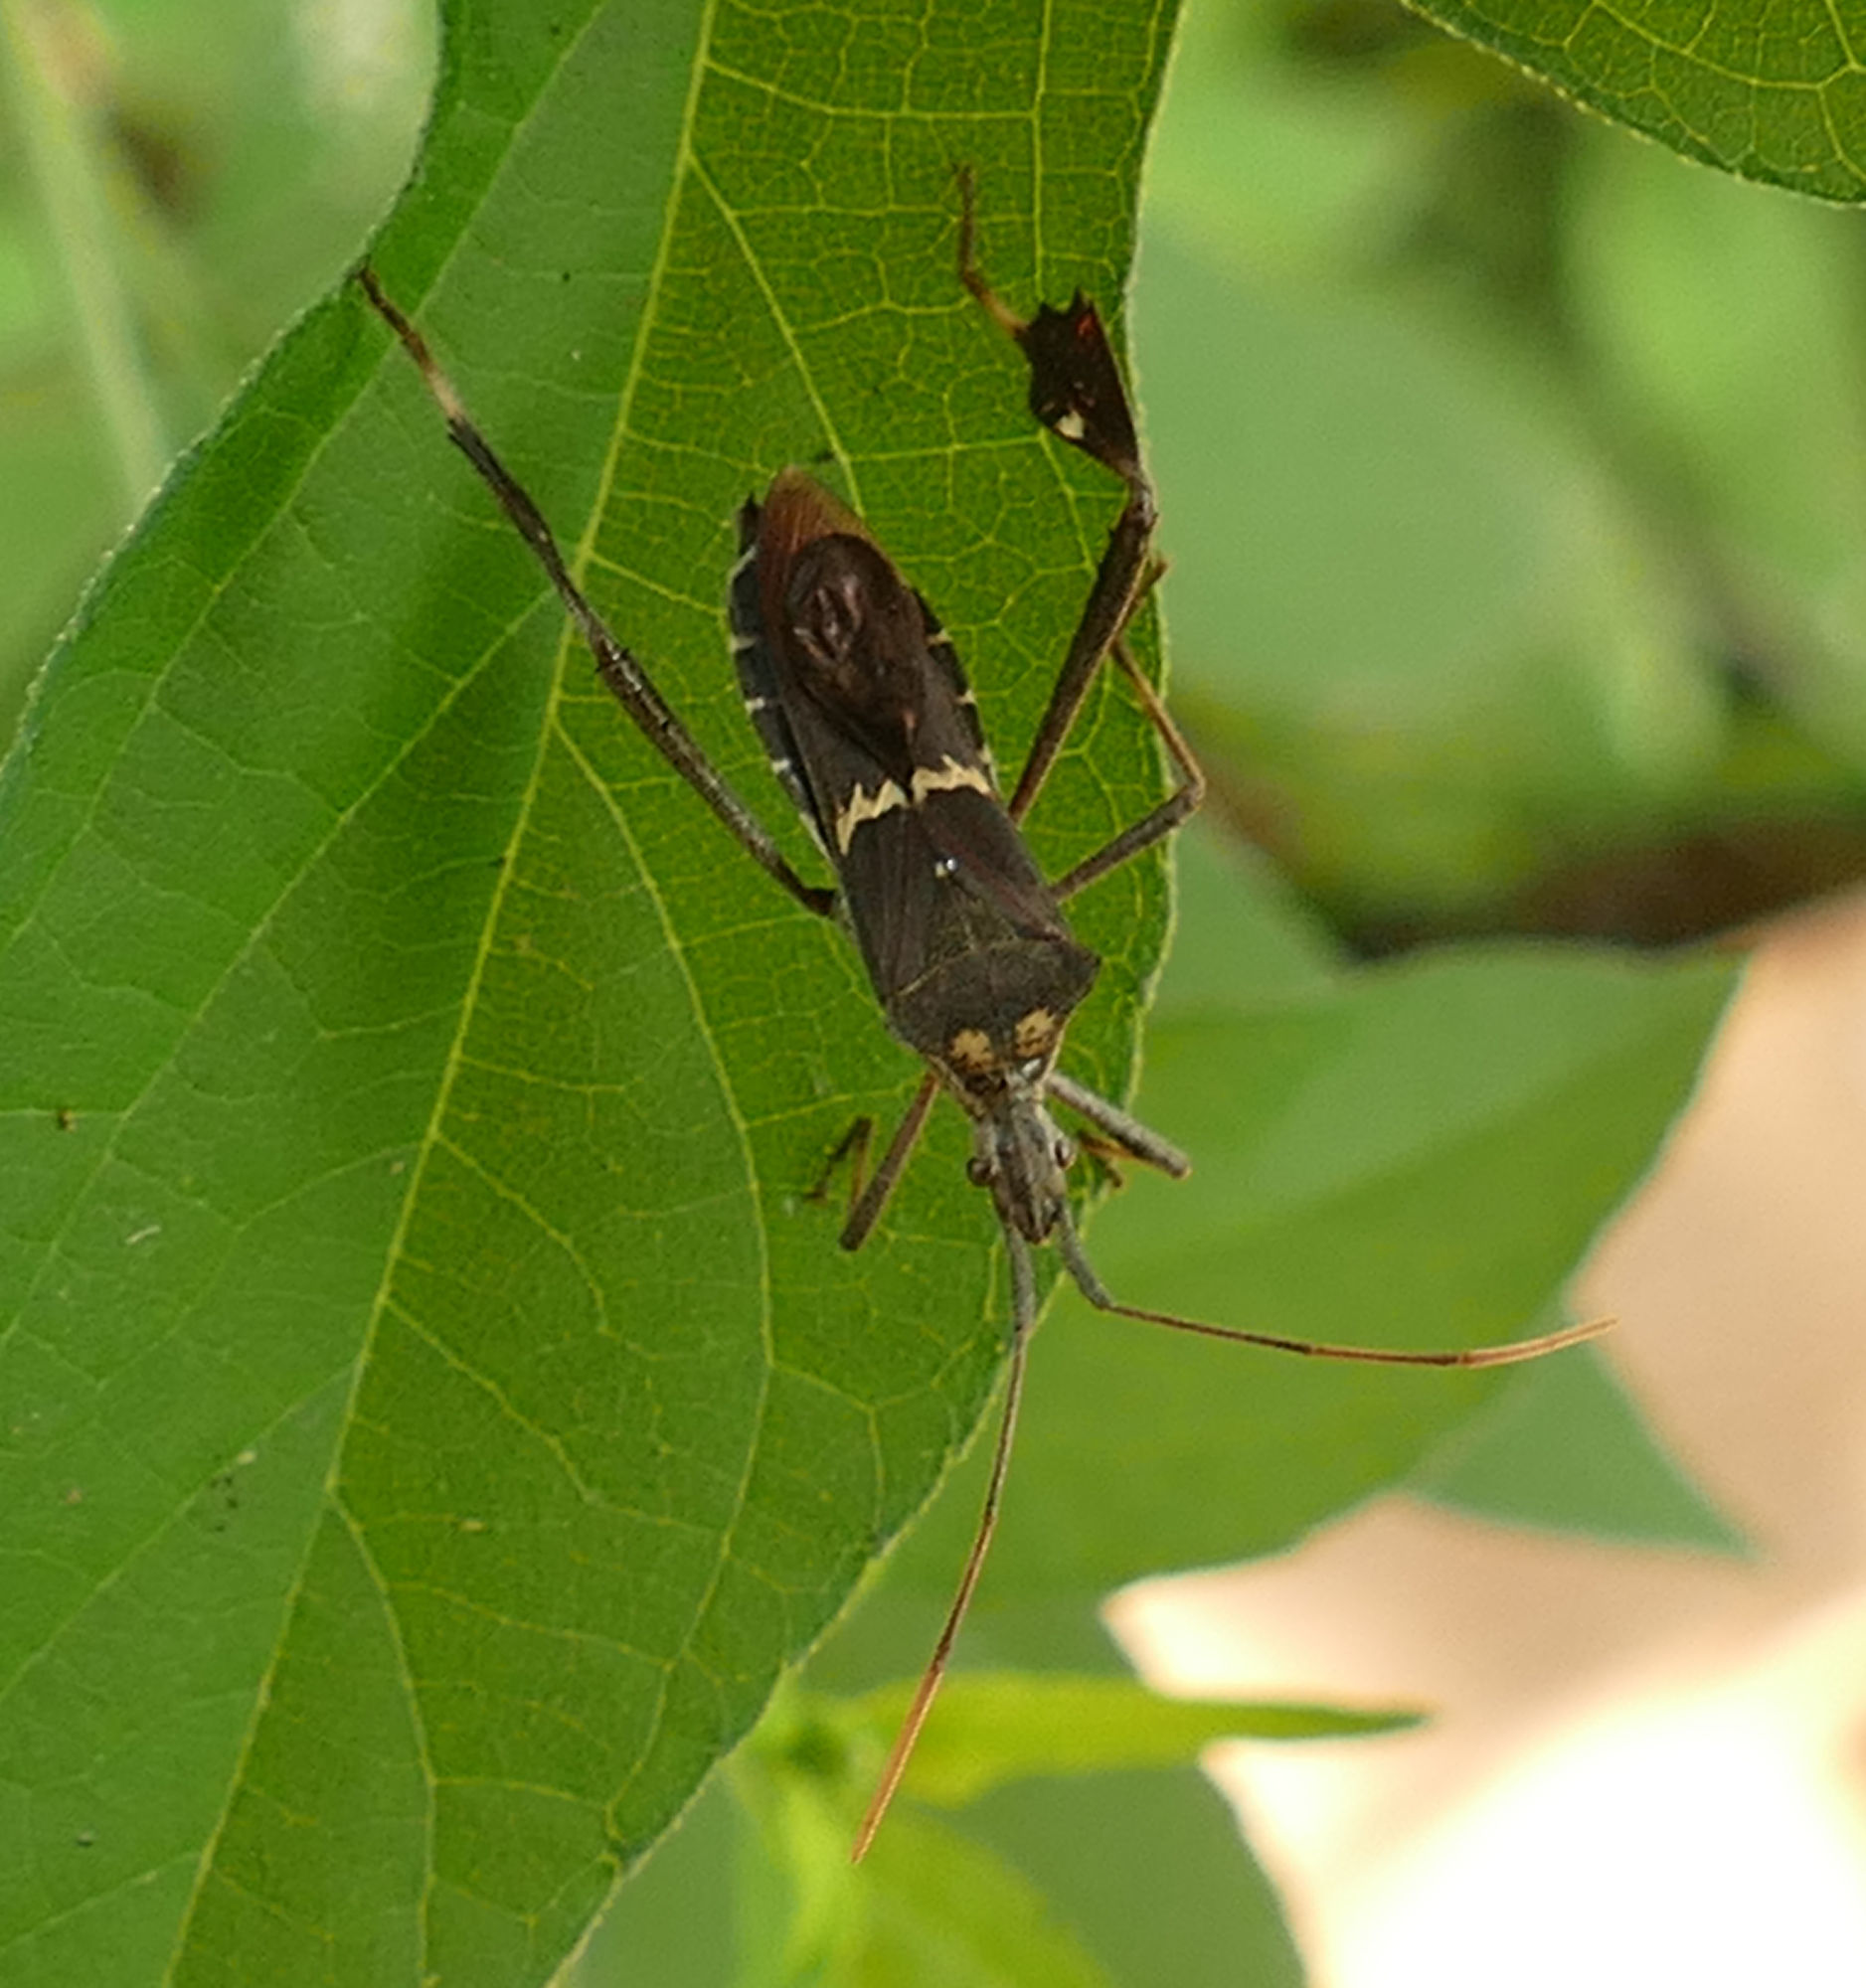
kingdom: Animalia
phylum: Arthropoda
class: Insecta
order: Hemiptera
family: Coreidae
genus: Leptoglossus
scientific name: Leptoglossus zonatus
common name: Large-legged bug
